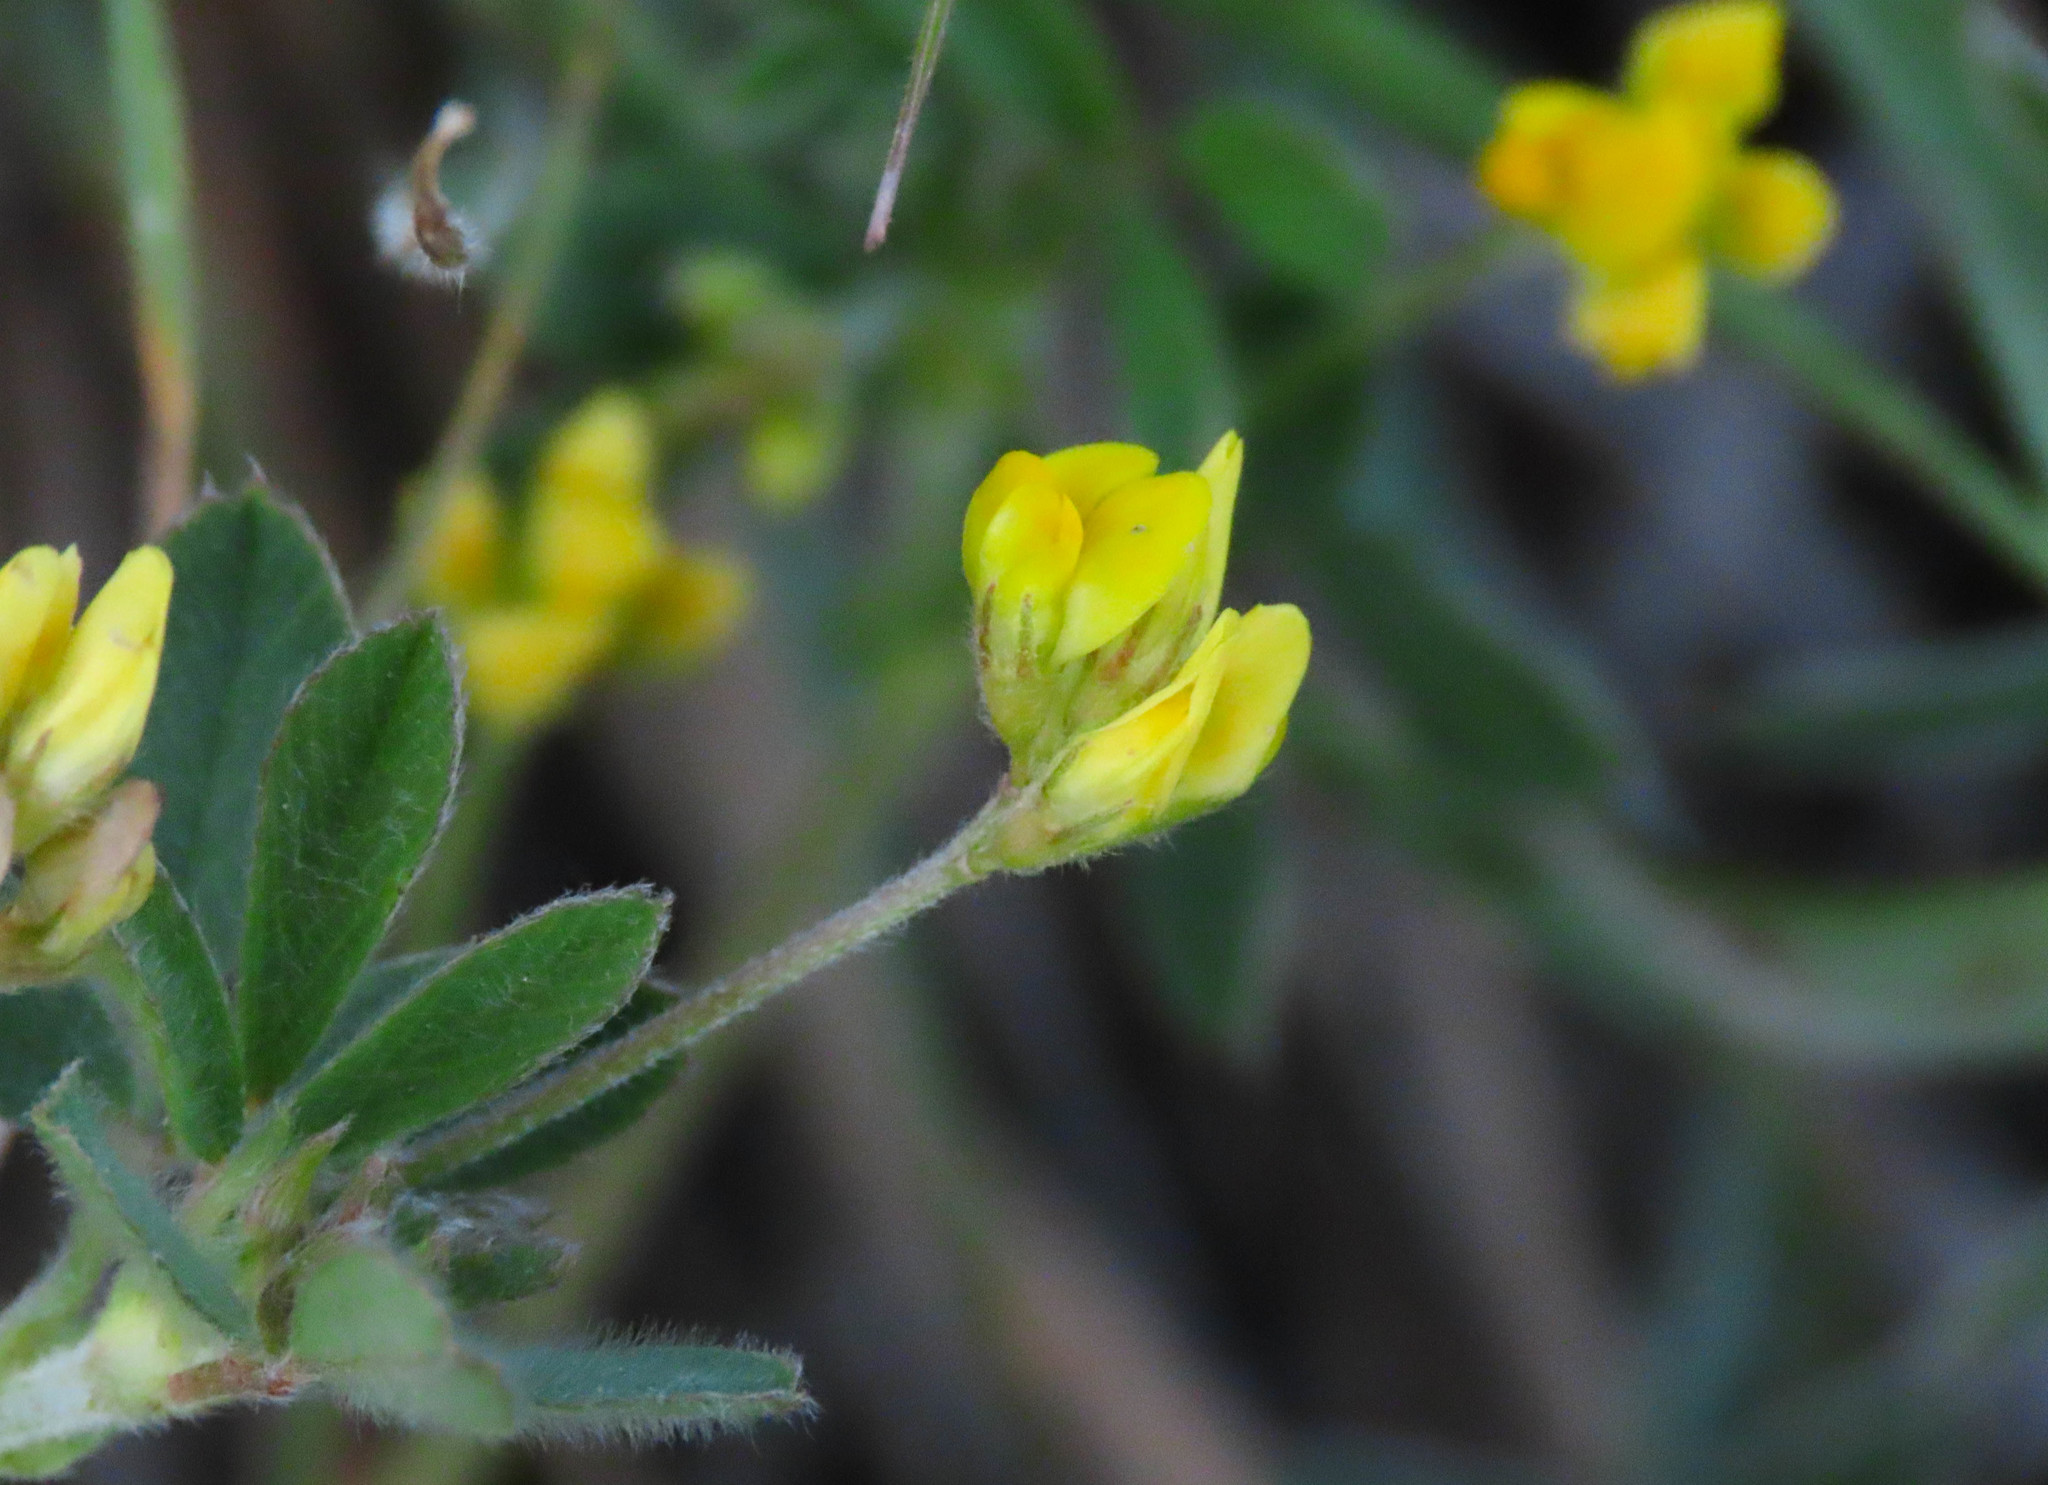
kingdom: Plantae
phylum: Tracheophyta
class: Magnoliopsida
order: Fabales
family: Fabaceae
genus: Medicago
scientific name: Medicago minima
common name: Little bur-clover
